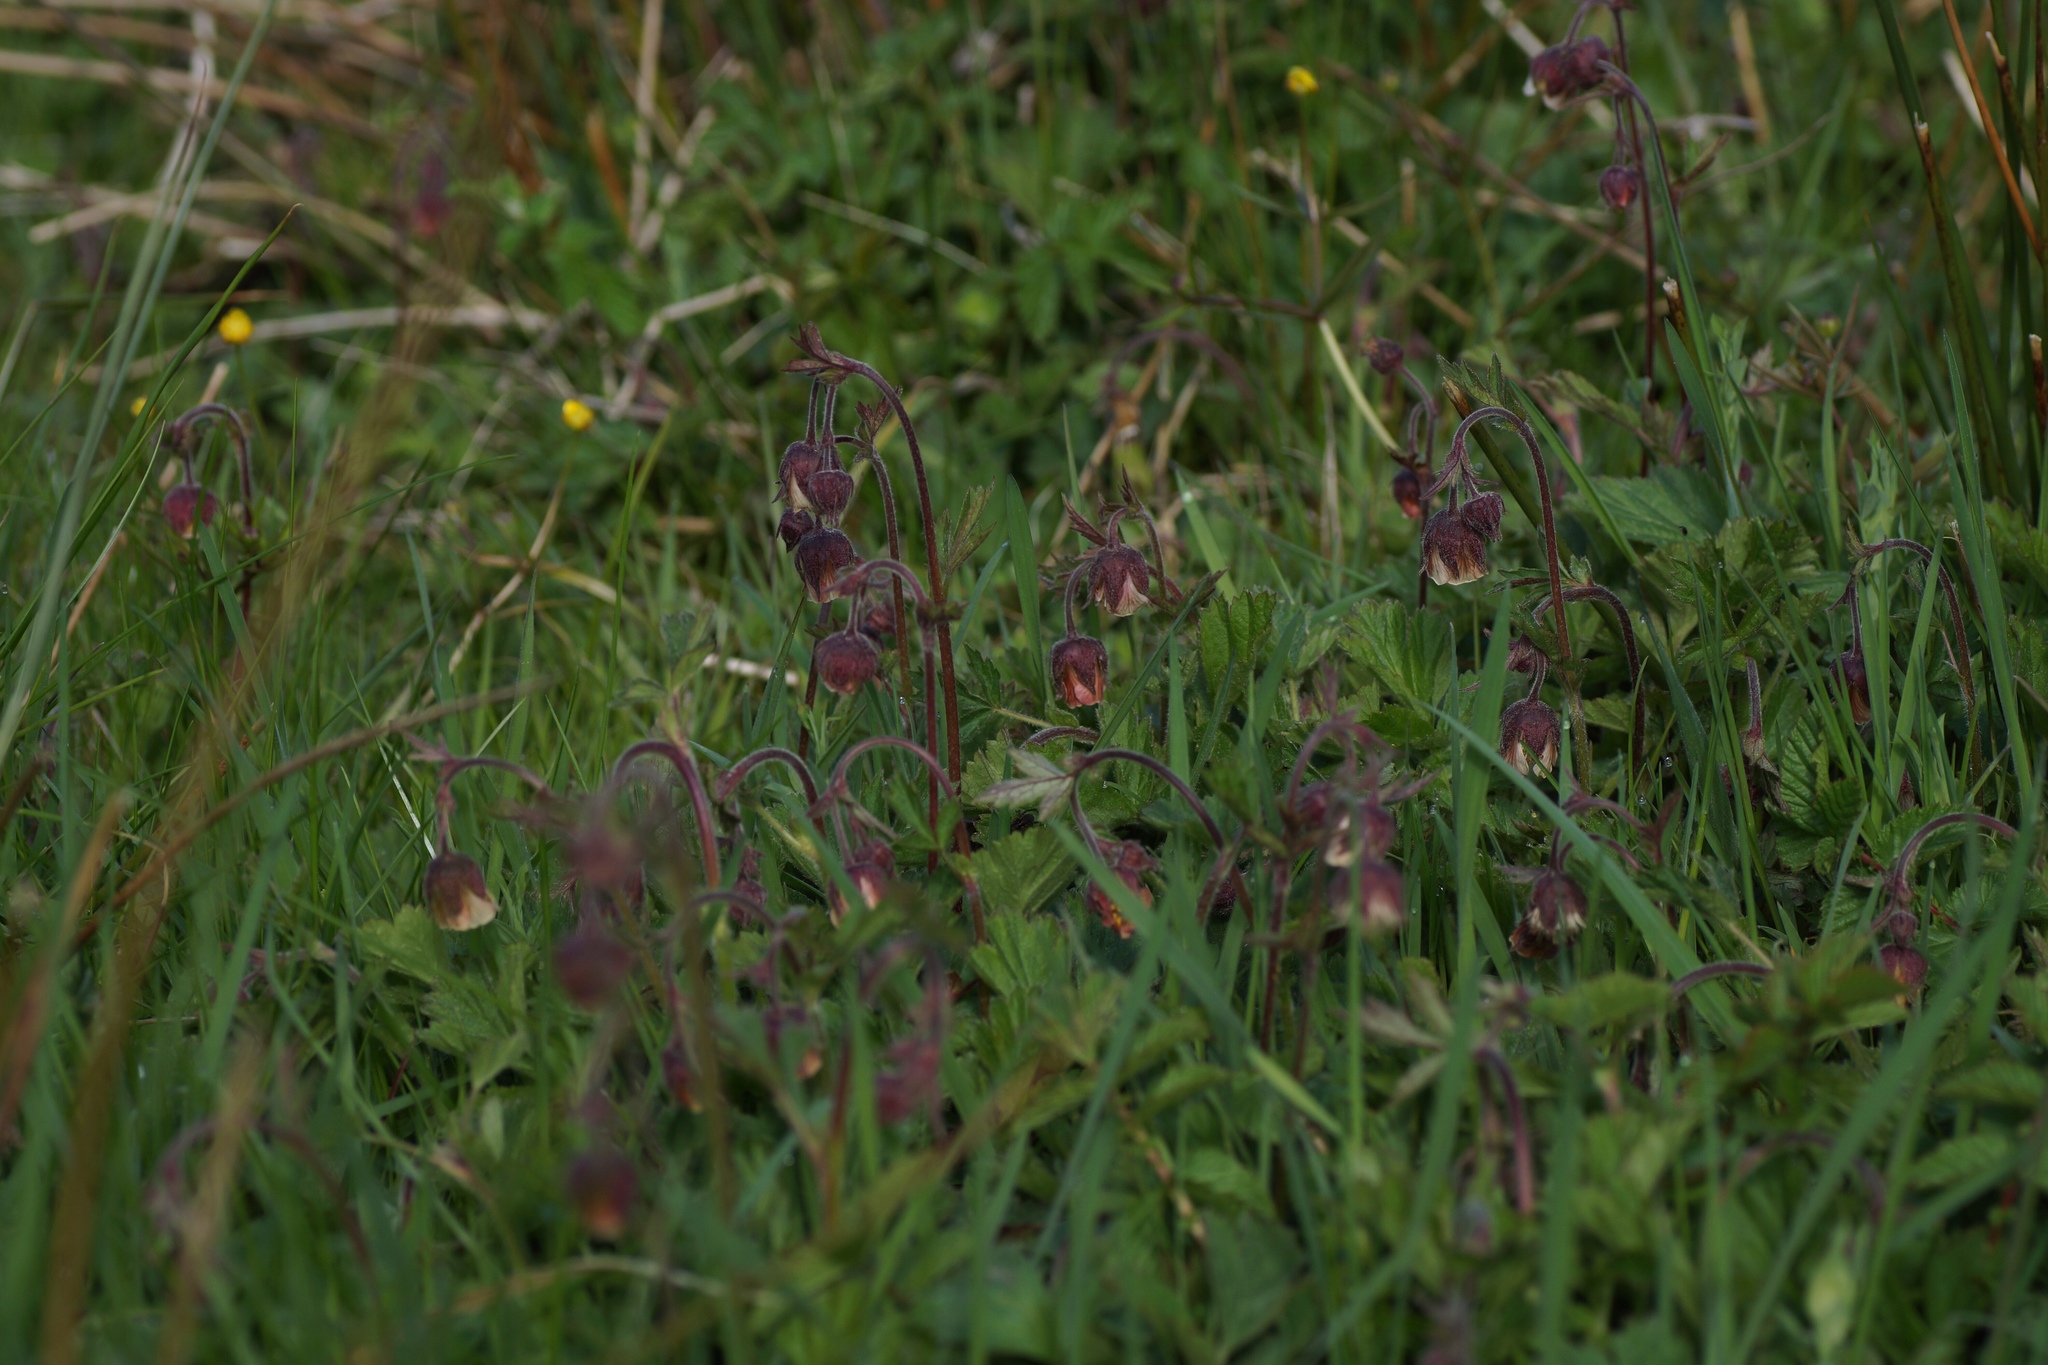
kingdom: Plantae
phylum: Tracheophyta
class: Magnoliopsida
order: Rosales
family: Rosaceae
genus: Geum
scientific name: Geum rivale
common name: Water avens
